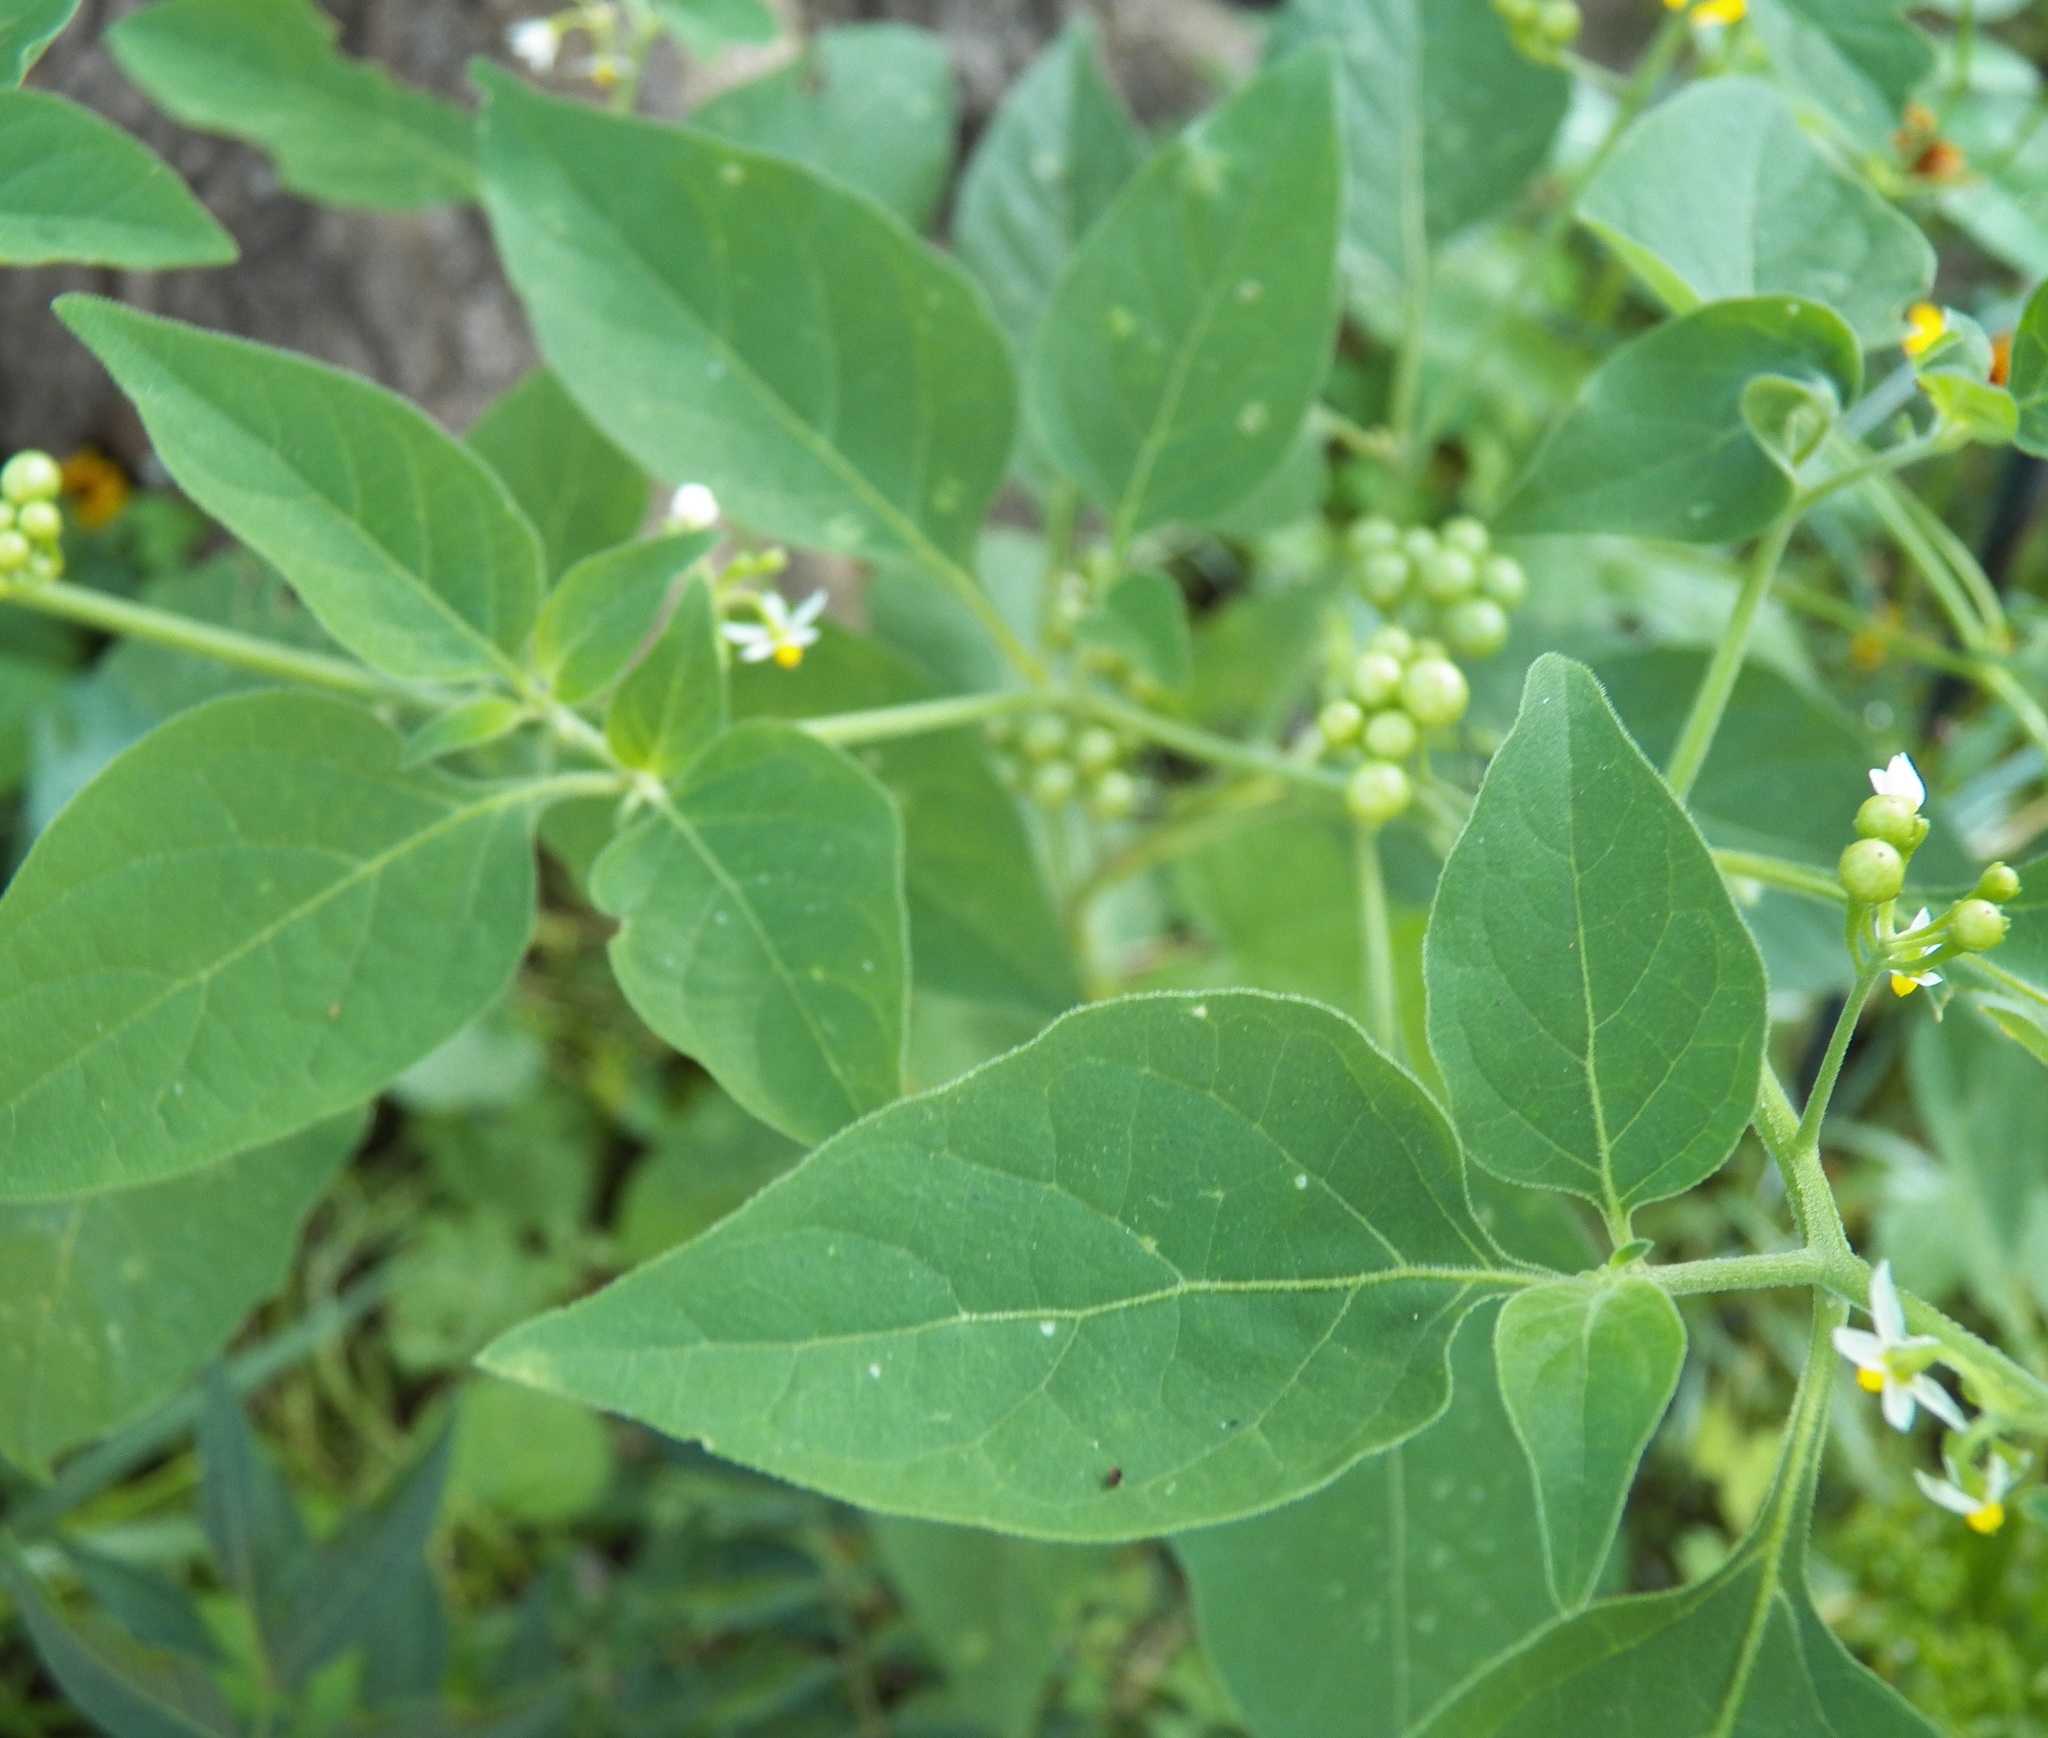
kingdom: Plantae
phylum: Tracheophyta
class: Magnoliopsida
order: Solanales
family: Solanaceae
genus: Solanum
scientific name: Solanum americanum
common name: American black nightshade
